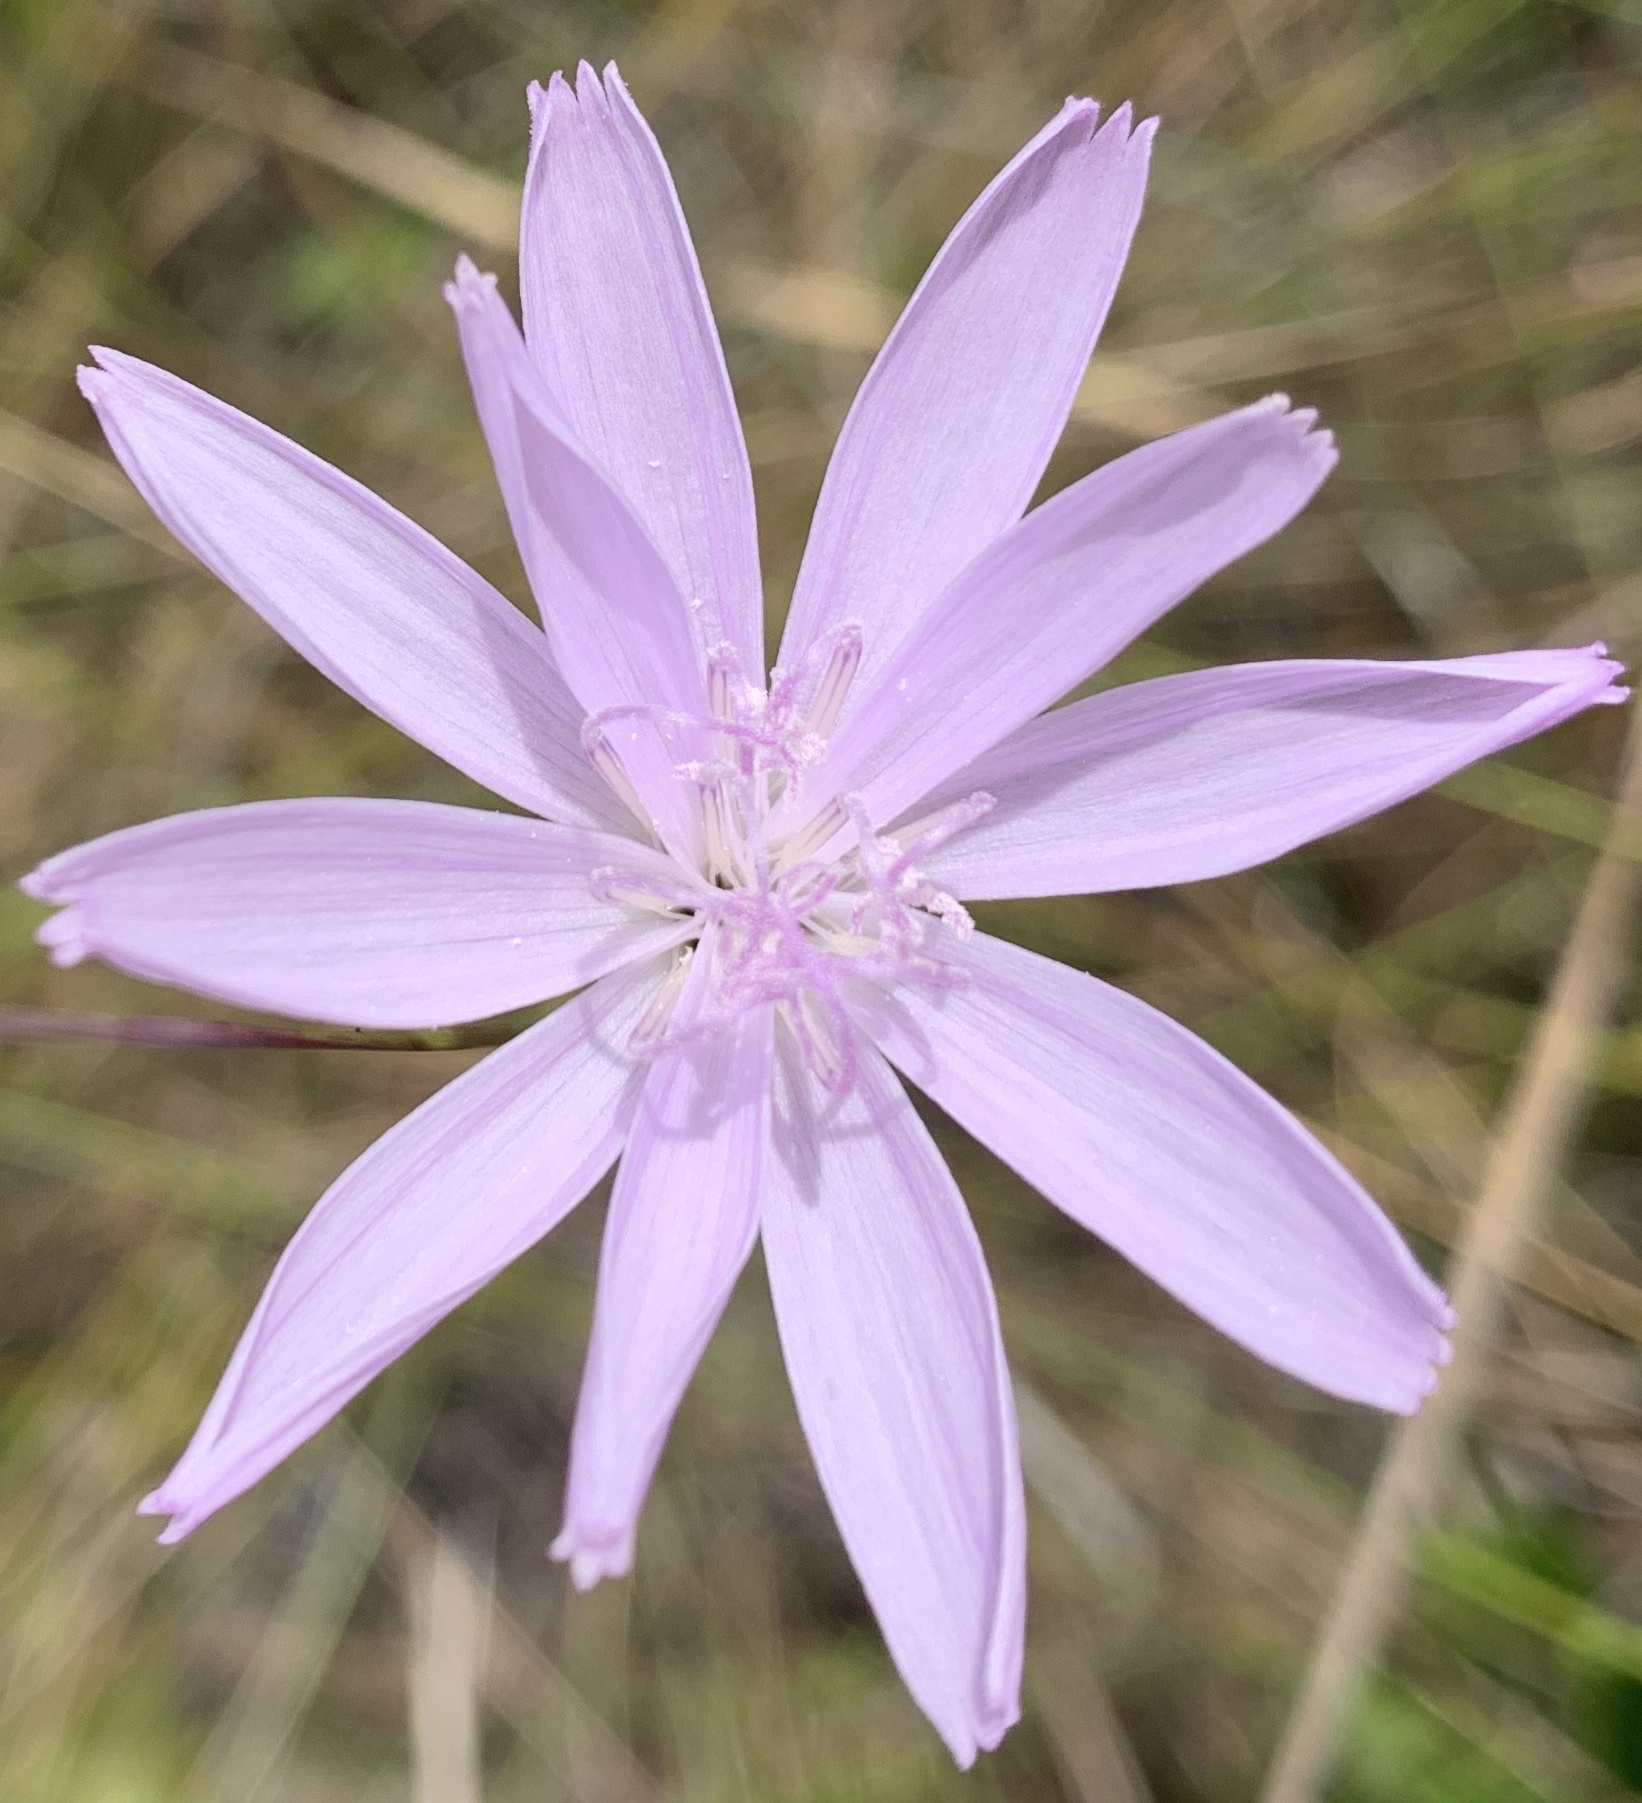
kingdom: Plantae
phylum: Tracheophyta
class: Magnoliopsida
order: Asterales
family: Asteraceae
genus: Lygodesmia
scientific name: Lygodesmia aphylla
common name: Rose-rush
